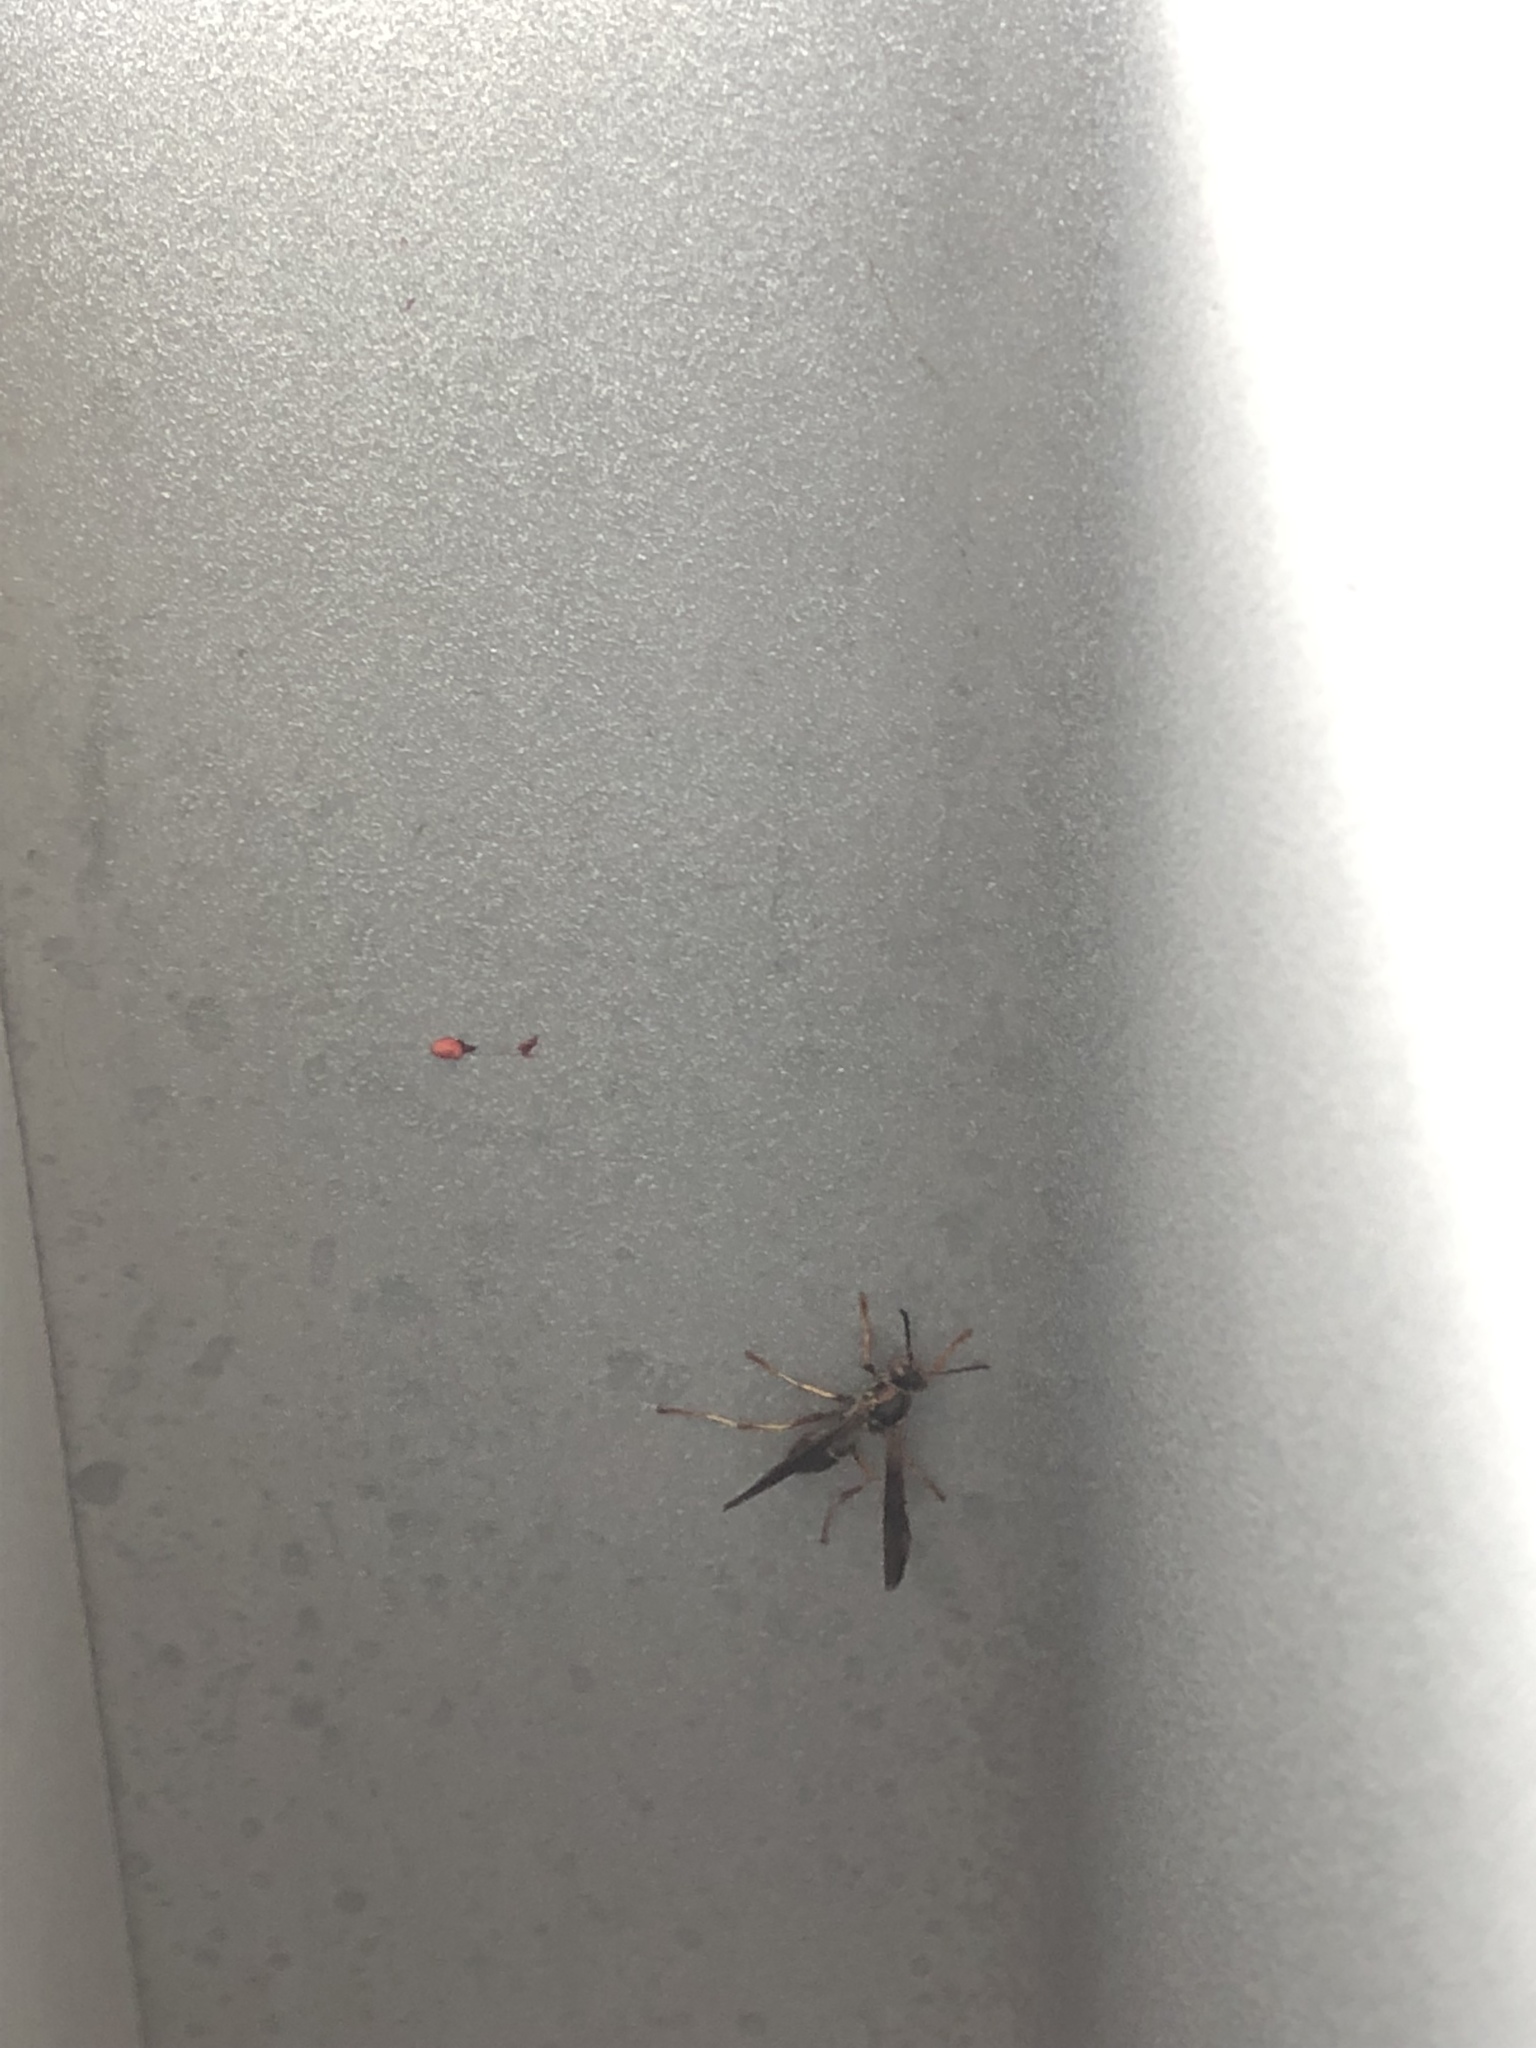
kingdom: Animalia
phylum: Arthropoda
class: Insecta
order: Hymenoptera
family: Eumenidae
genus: Polistes
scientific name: Polistes fuscatus
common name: Dark paper wasp
